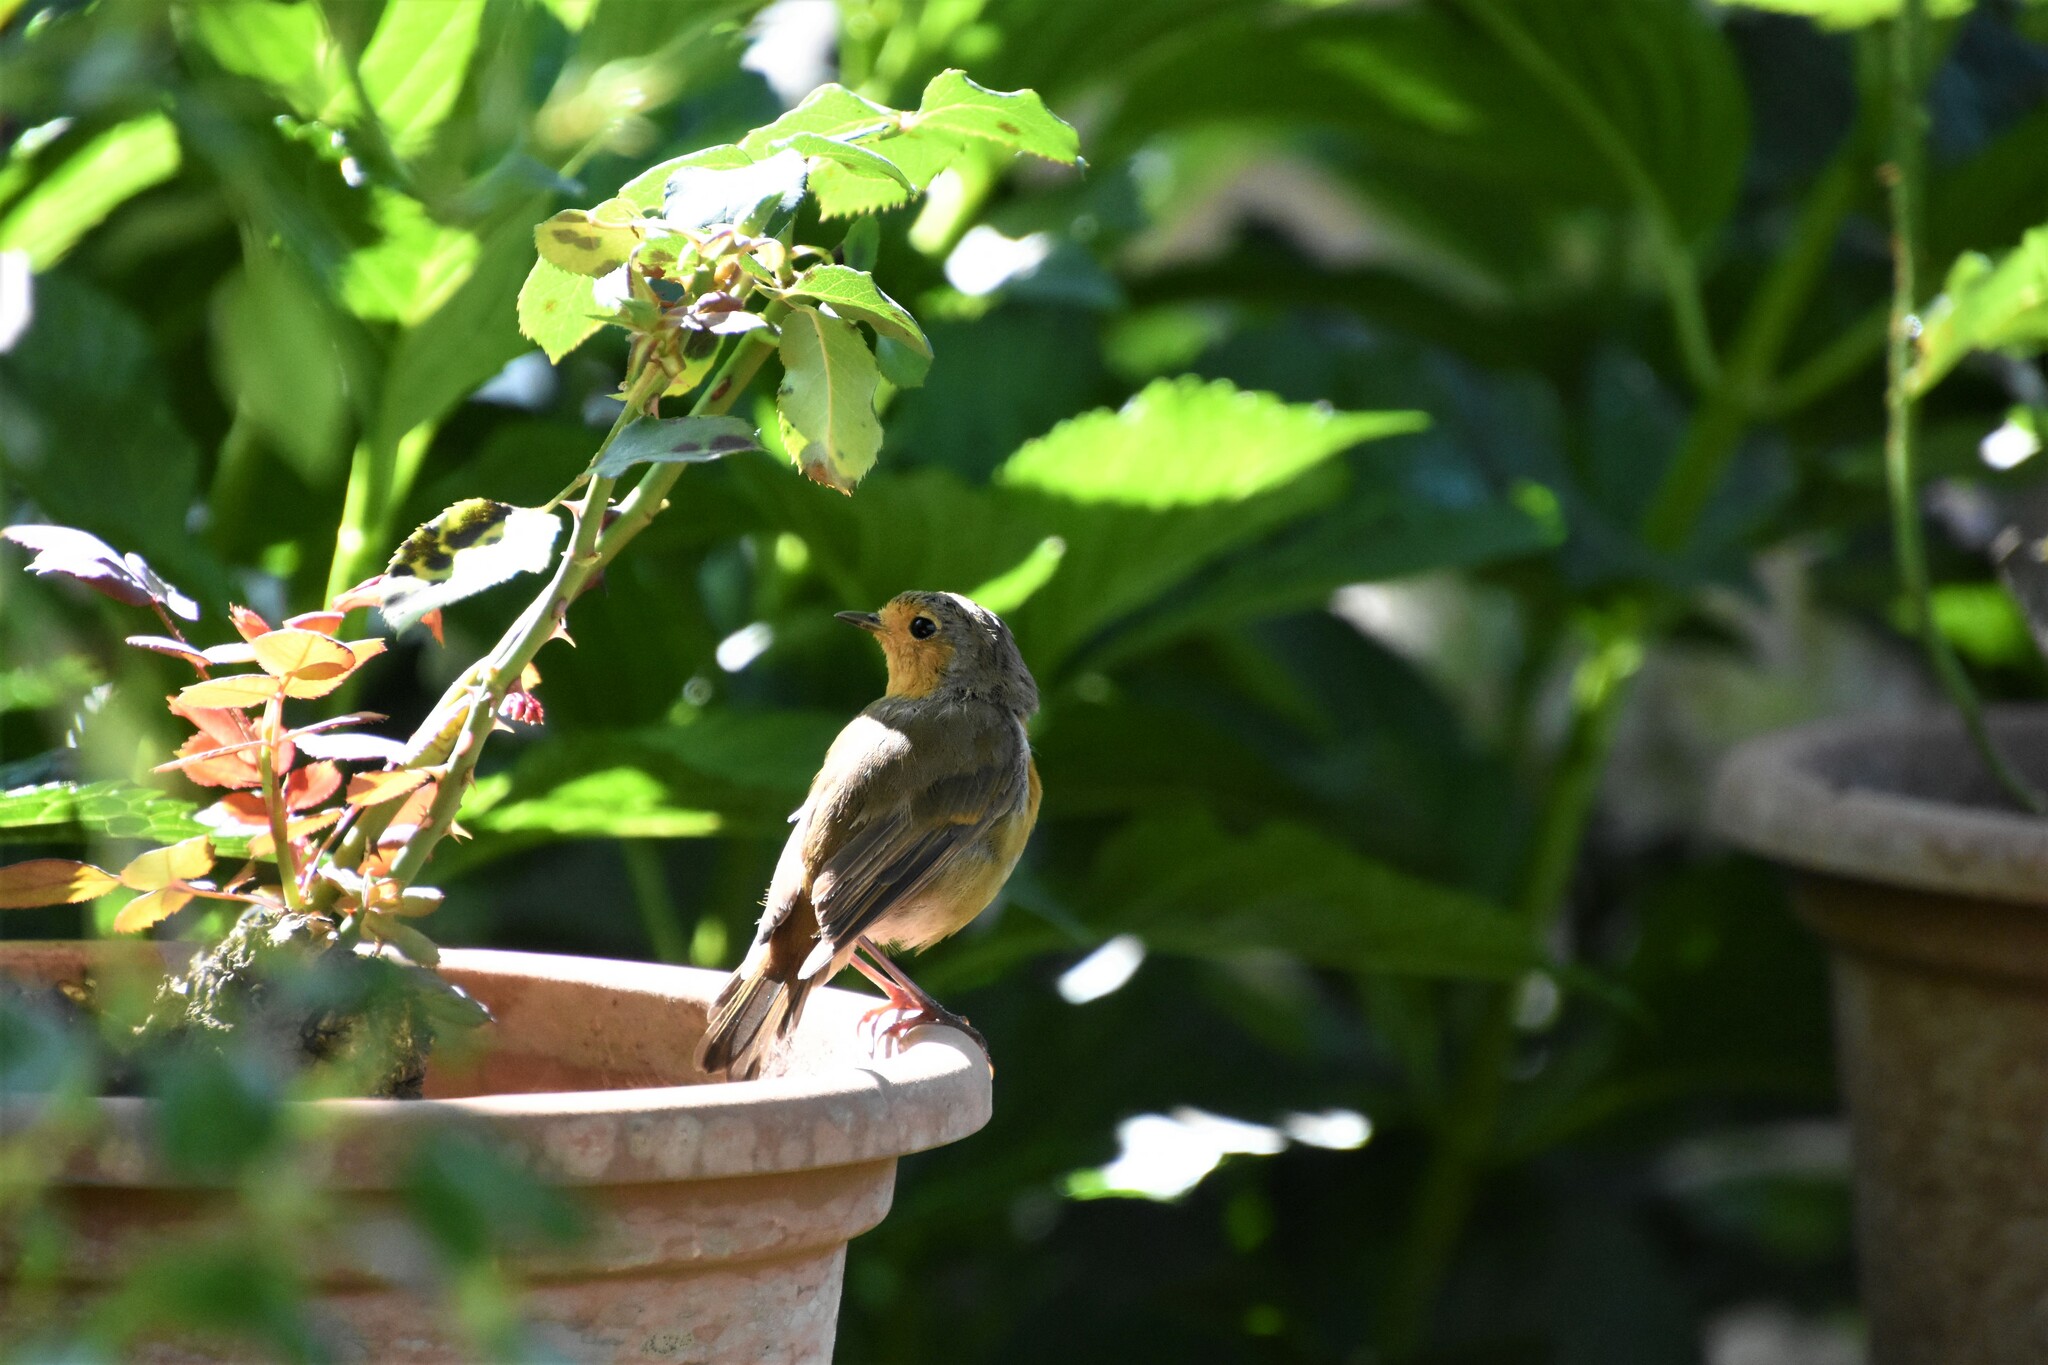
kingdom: Animalia
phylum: Chordata
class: Aves
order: Passeriformes
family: Muscicapidae
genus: Erithacus
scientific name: Erithacus rubecula
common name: European robin
